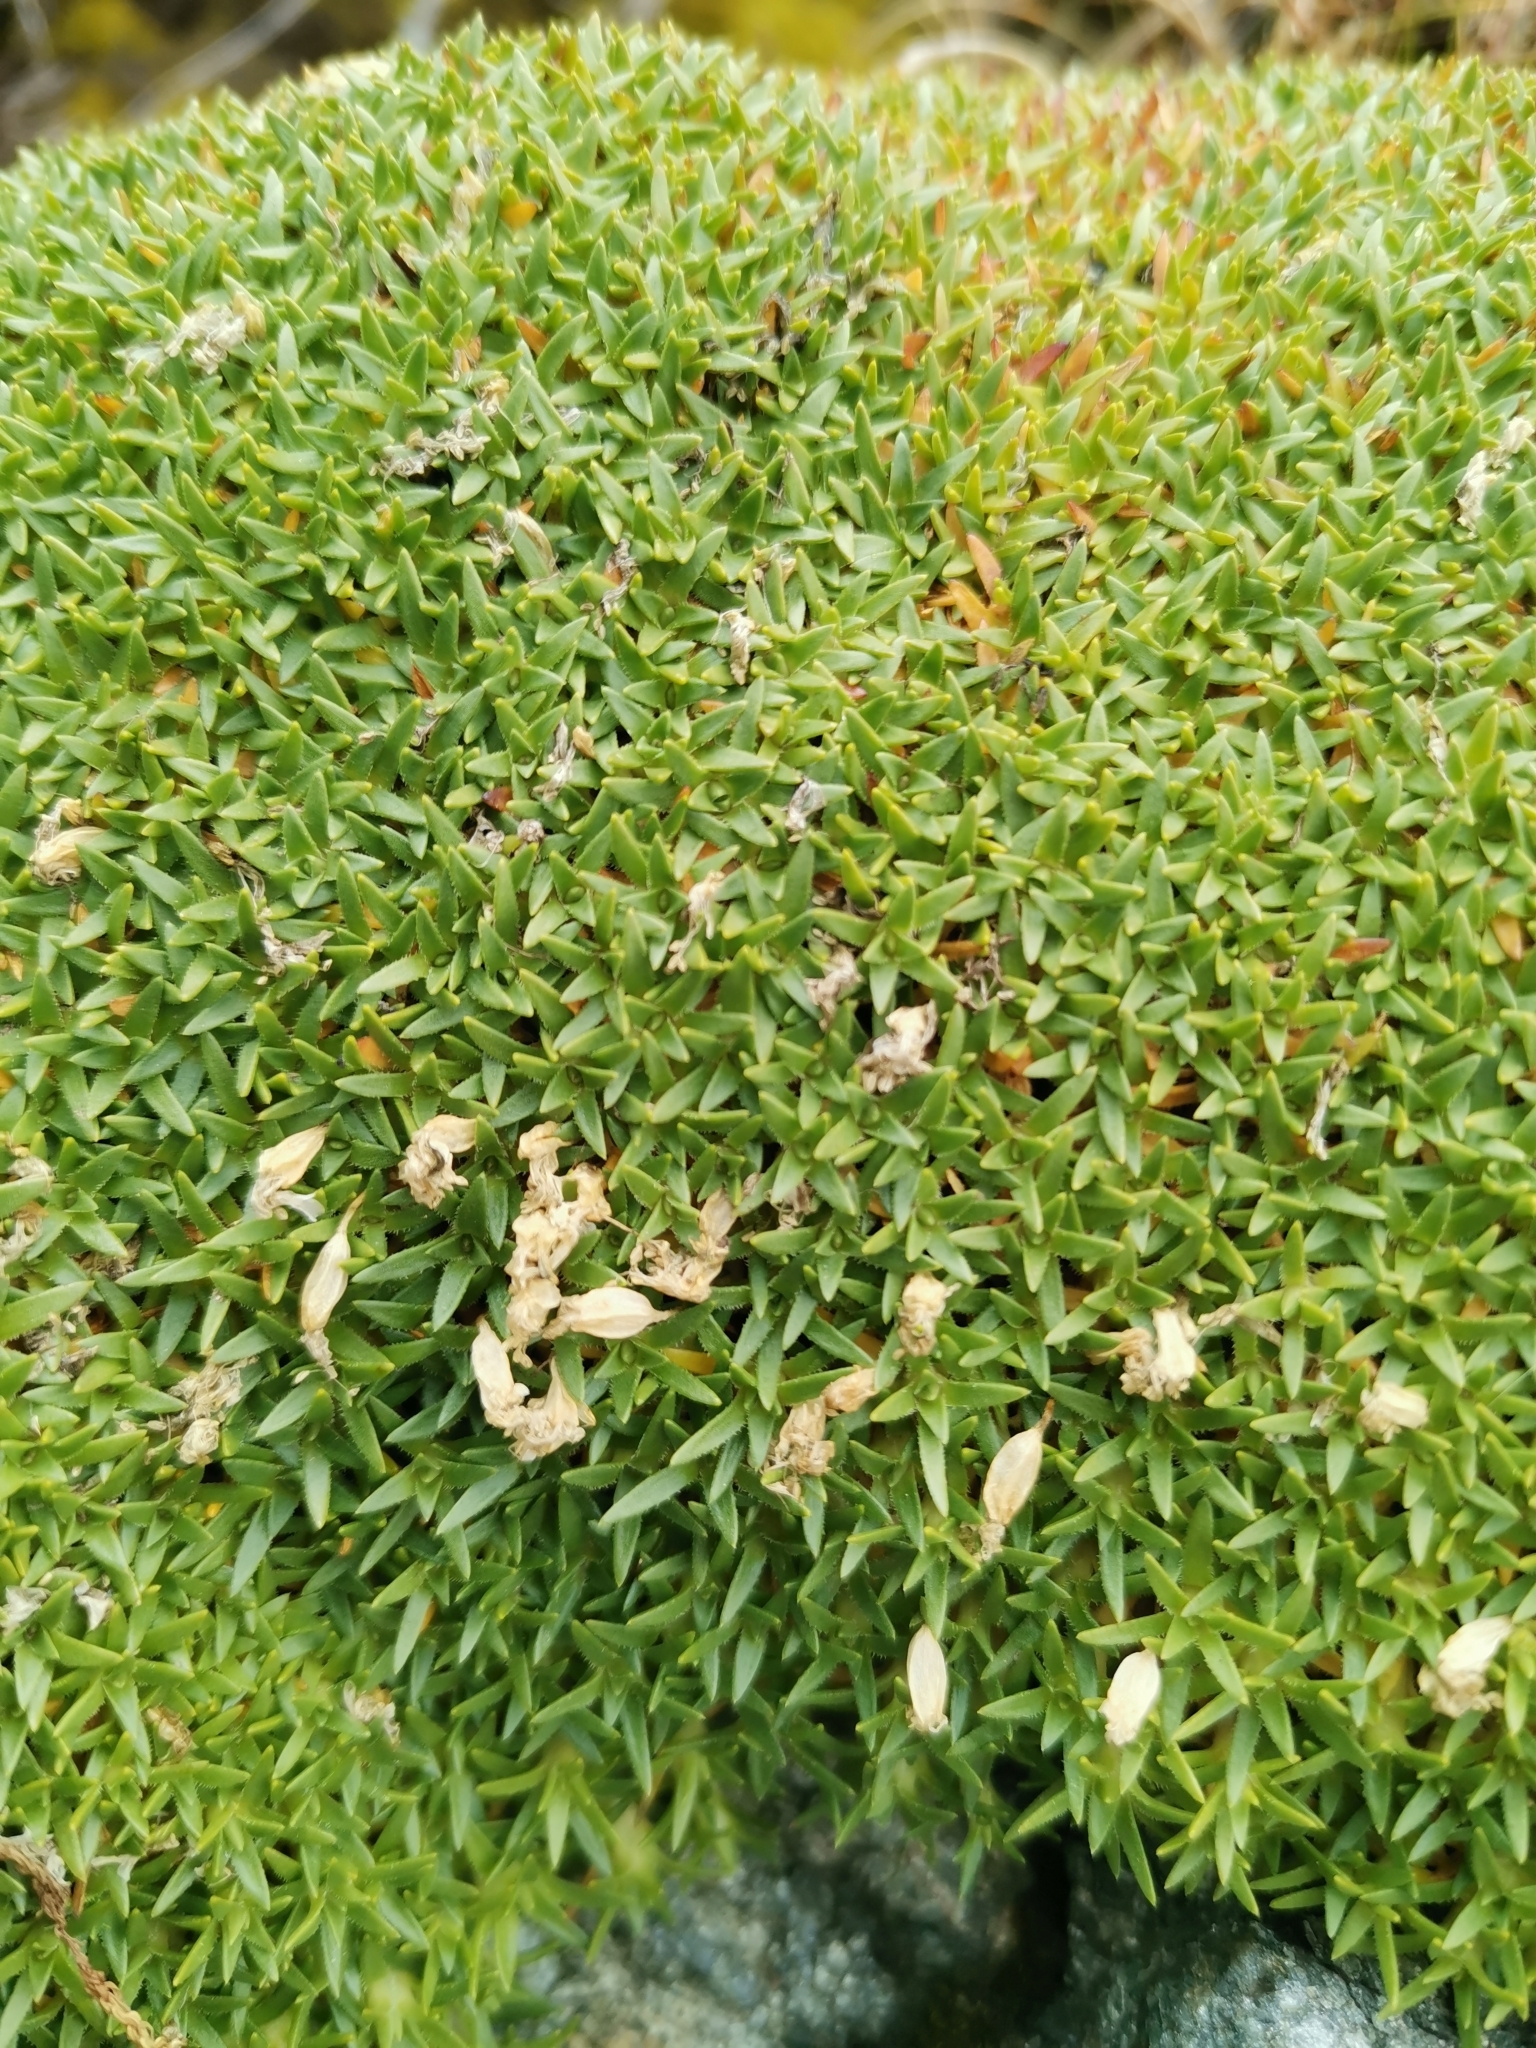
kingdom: Plantae
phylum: Tracheophyta
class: Magnoliopsida
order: Caryophyllales
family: Caryophyllaceae
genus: Silene
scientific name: Silene acaulis
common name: Moss campion
